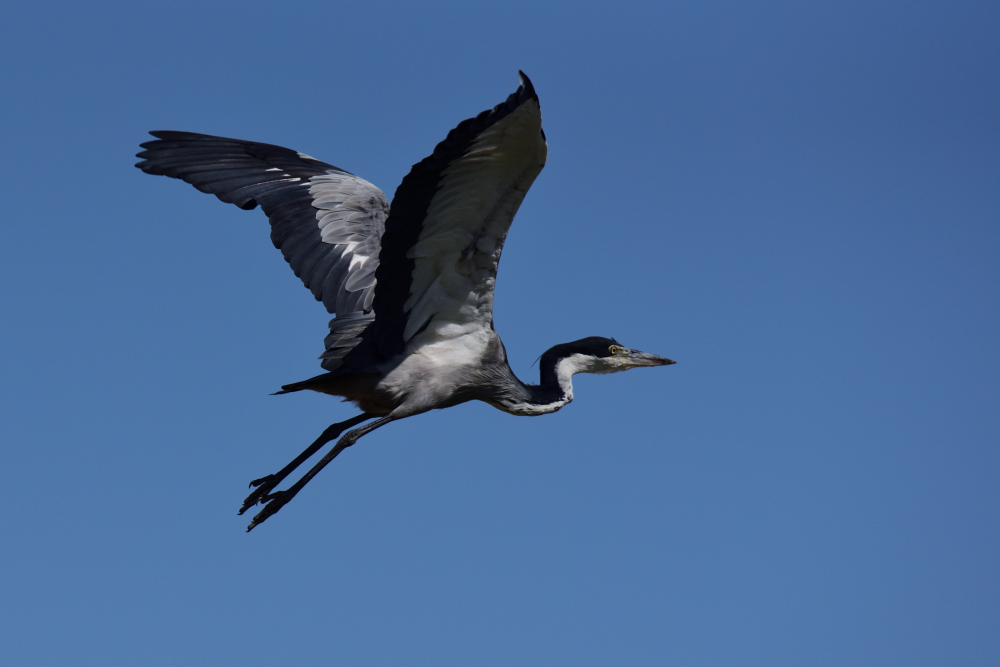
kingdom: Animalia
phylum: Chordata
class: Aves
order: Pelecaniformes
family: Ardeidae
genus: Ardea
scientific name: Ardea melanocephala
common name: Black-headed heron
